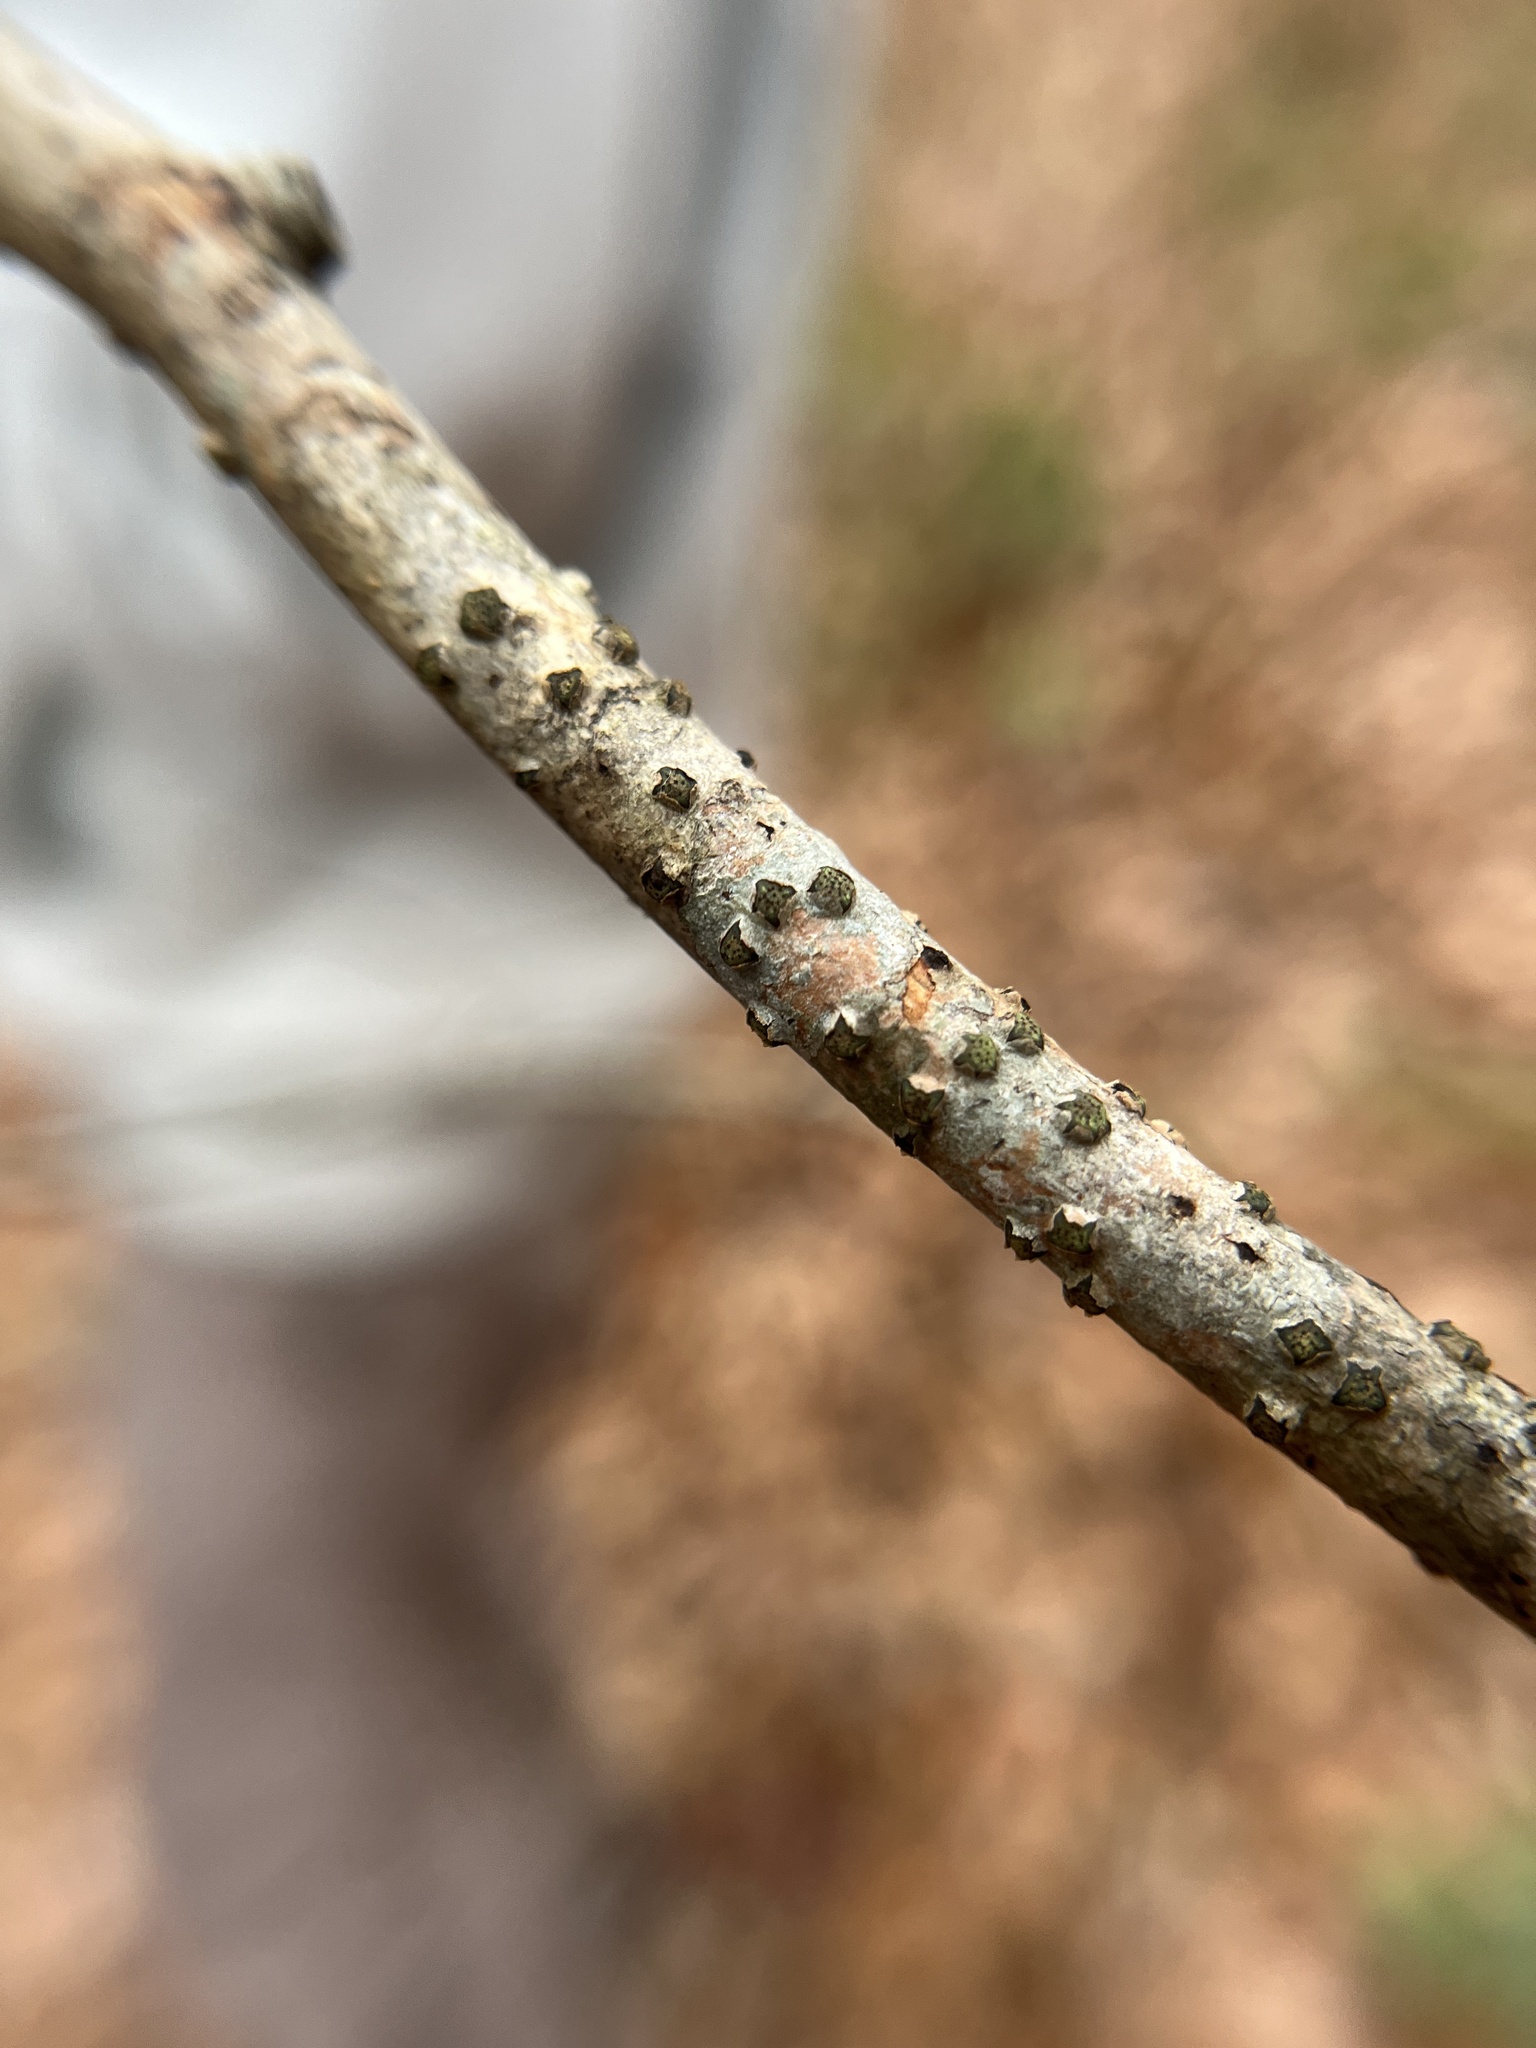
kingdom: Fungi
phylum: Ascomycota
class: Sordariomycetes
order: Xylariales
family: Diatrypaceae
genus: Diatrype
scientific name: Diatrype virescens
